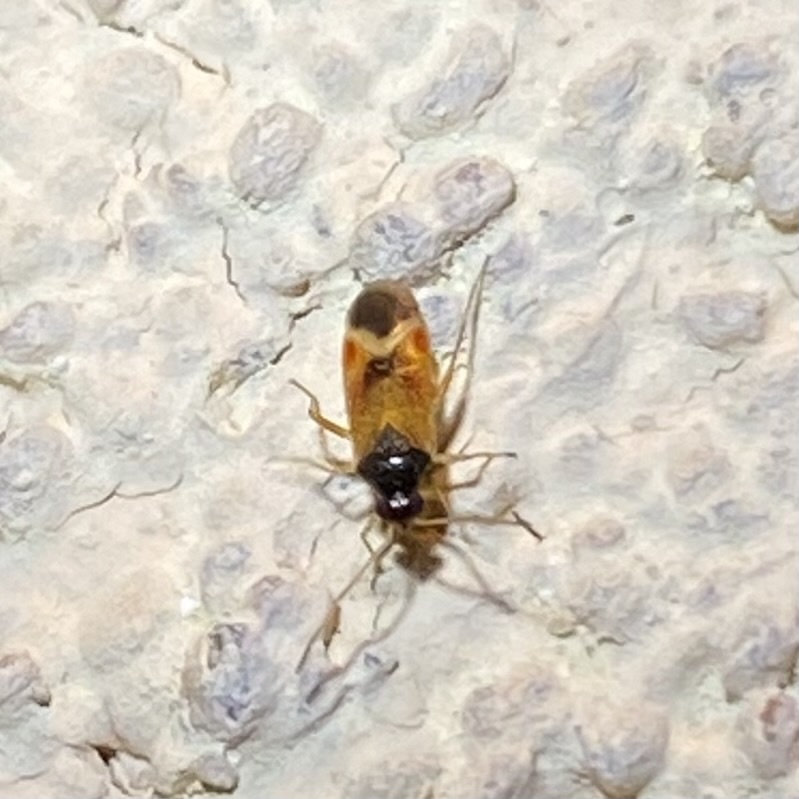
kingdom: Animalia
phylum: Arthropoda
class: Insecta
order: Hemiptera
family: Miridae
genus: Ceratocapsus
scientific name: Ceratocapsus apicalis
